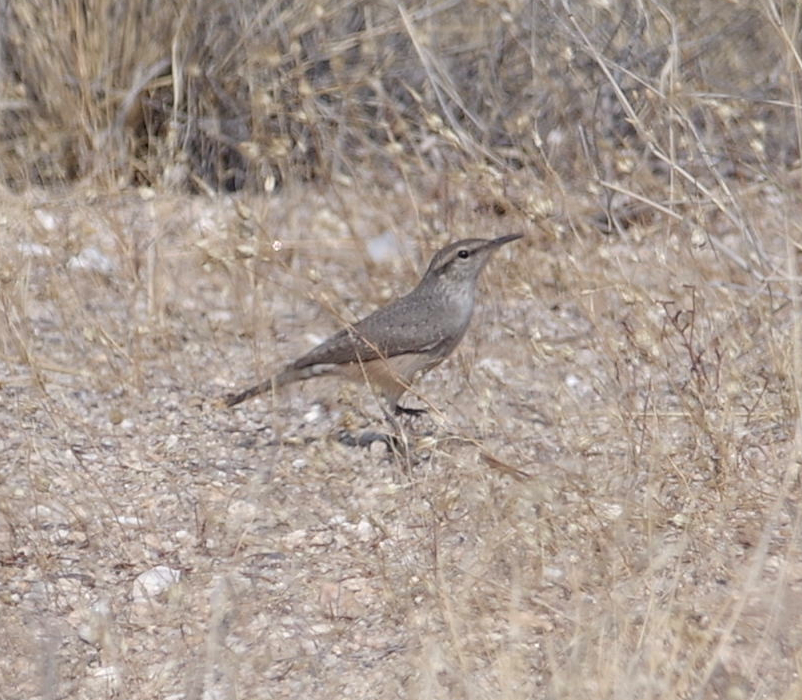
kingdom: Animalia
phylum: Chordata
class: Aves
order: Passeriformes
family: Troglodytidae
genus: Salpinctes
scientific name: Salpinctes obsoletus
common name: Rock wren
